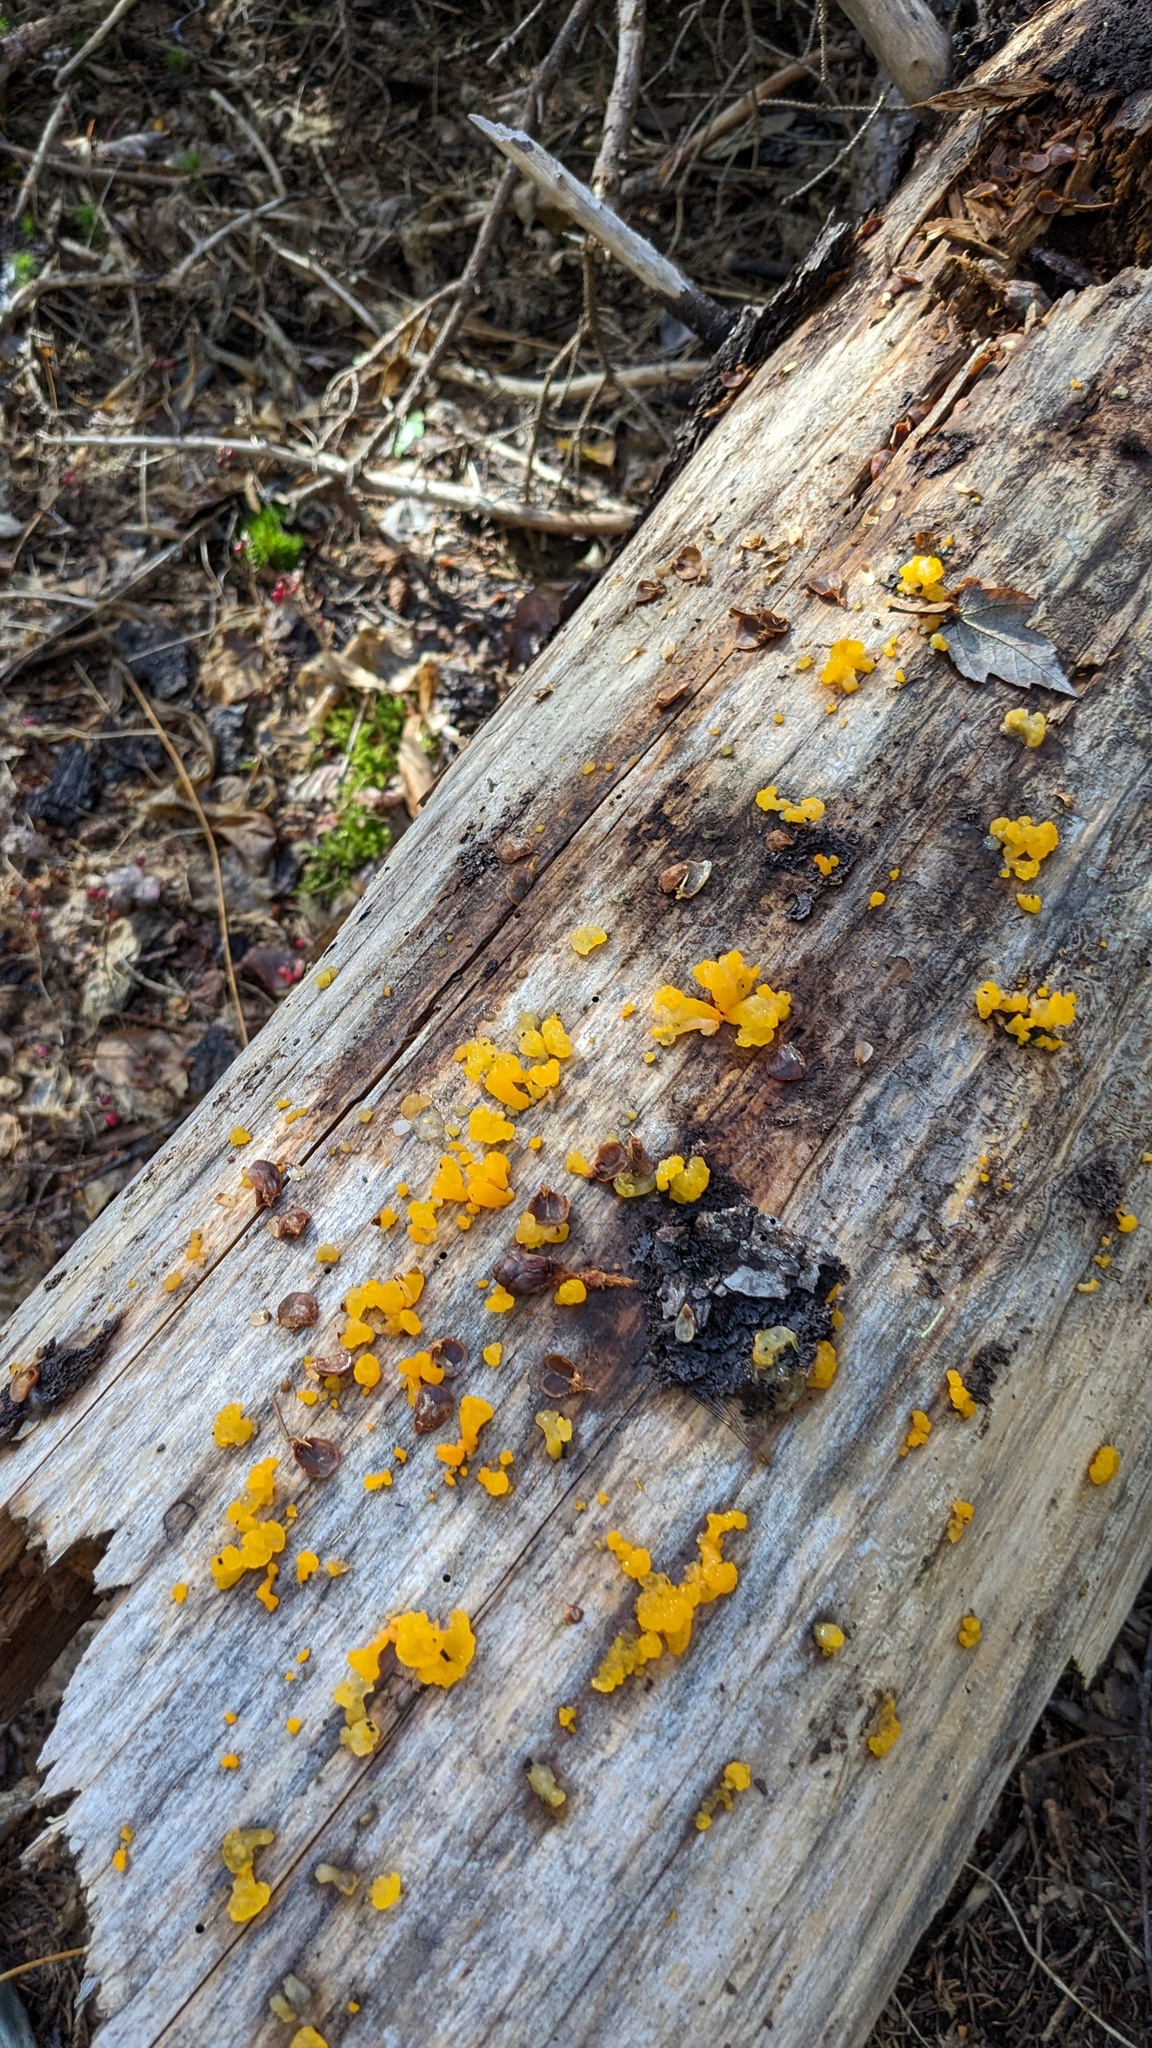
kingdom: Fungi
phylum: Basidiomycota
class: Dacrymycetes
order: Dacrymycetales
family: Dacrymycetaceae
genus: Dacrymyces
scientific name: Dacrymyces chrysospermus
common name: Orange jelly spot
